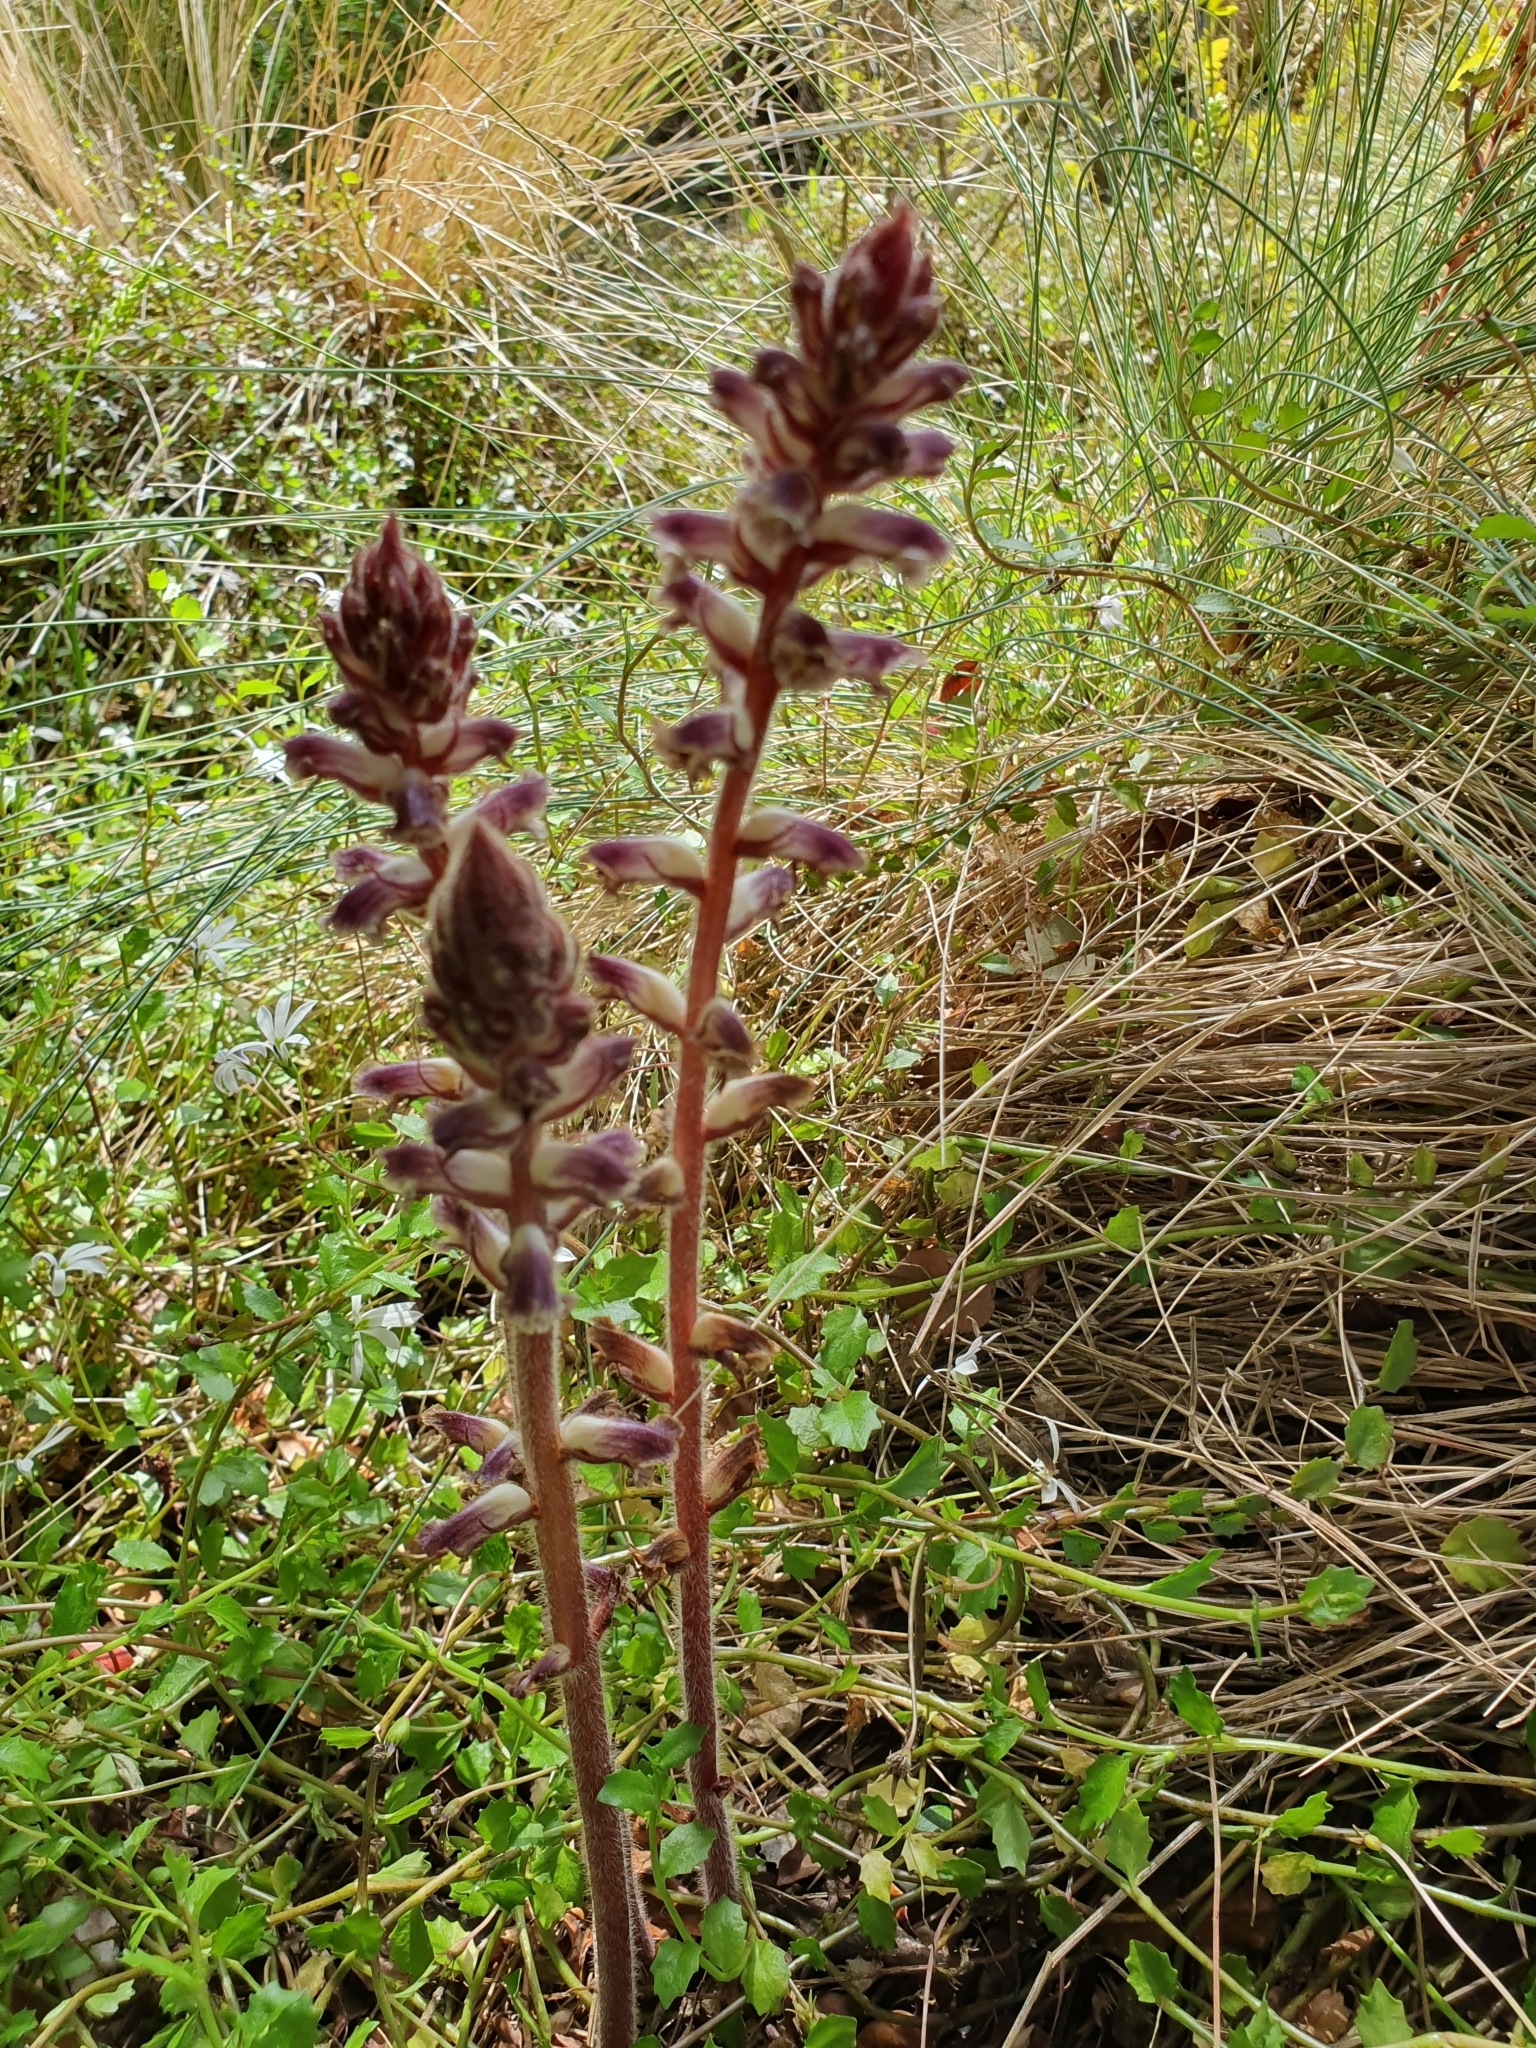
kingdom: Plantae
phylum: Tracheophyta
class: Magnoliopsida
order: Lamiales
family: Orobanchaceae
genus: Orobanche
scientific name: Orobanche minor
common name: Common broomrape
